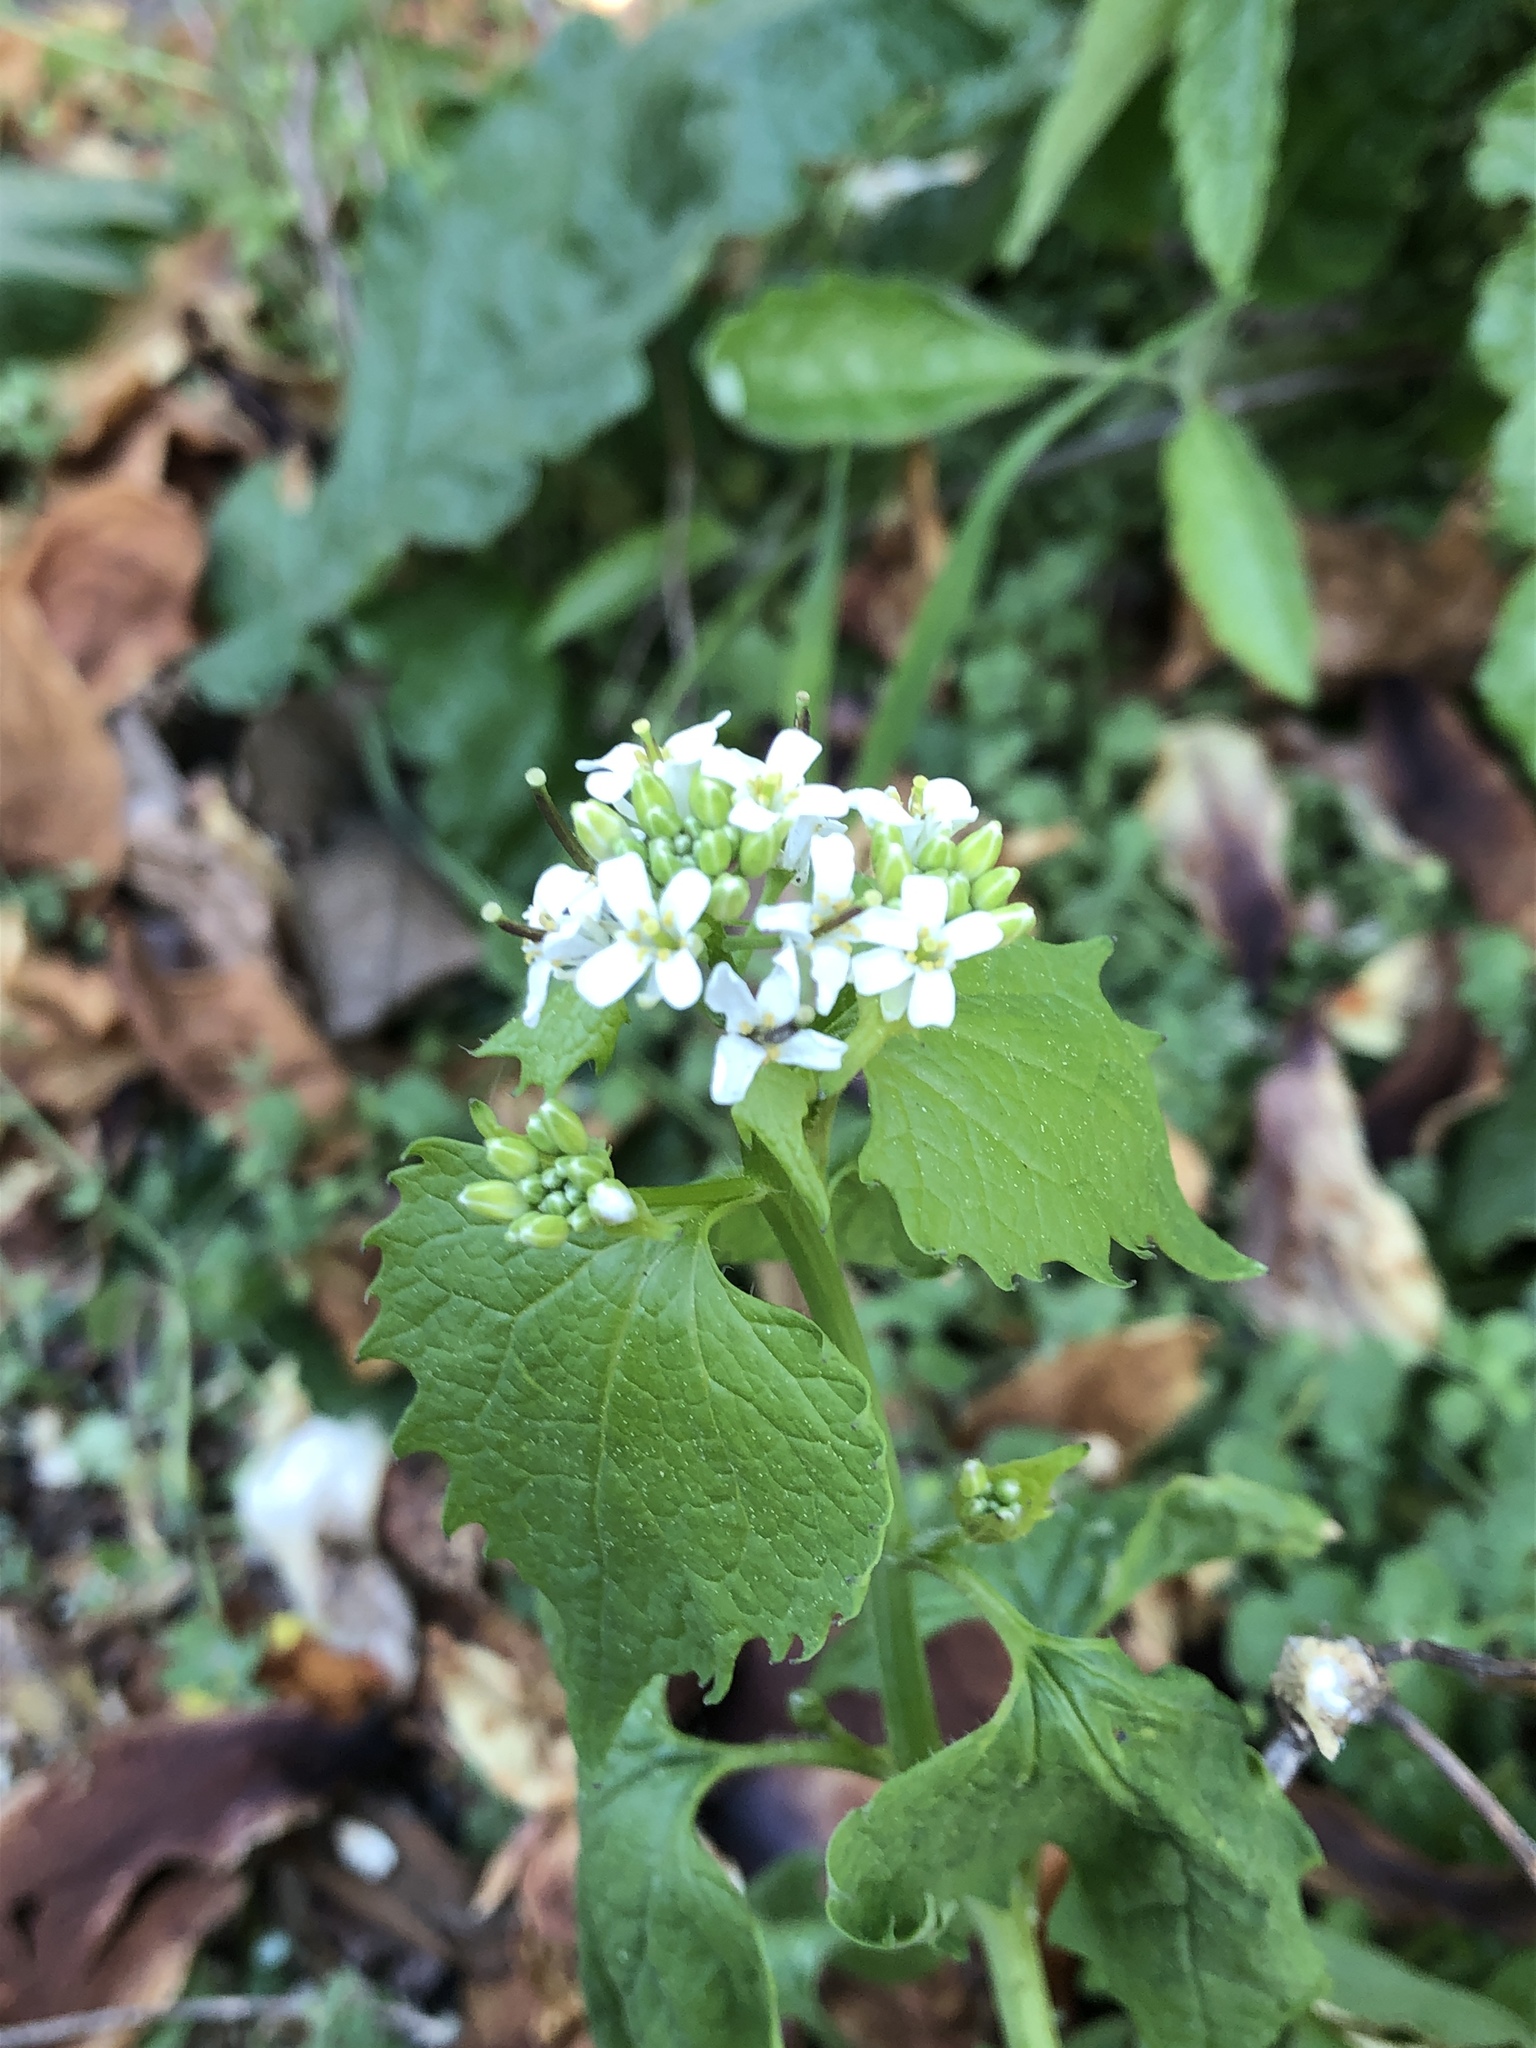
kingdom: Plantae
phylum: Tracheophyta
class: Magnoliopsida
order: Brassicales
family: Brassicaceae
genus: Alliaria
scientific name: Alliaria petiolata
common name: Garlic mustard
